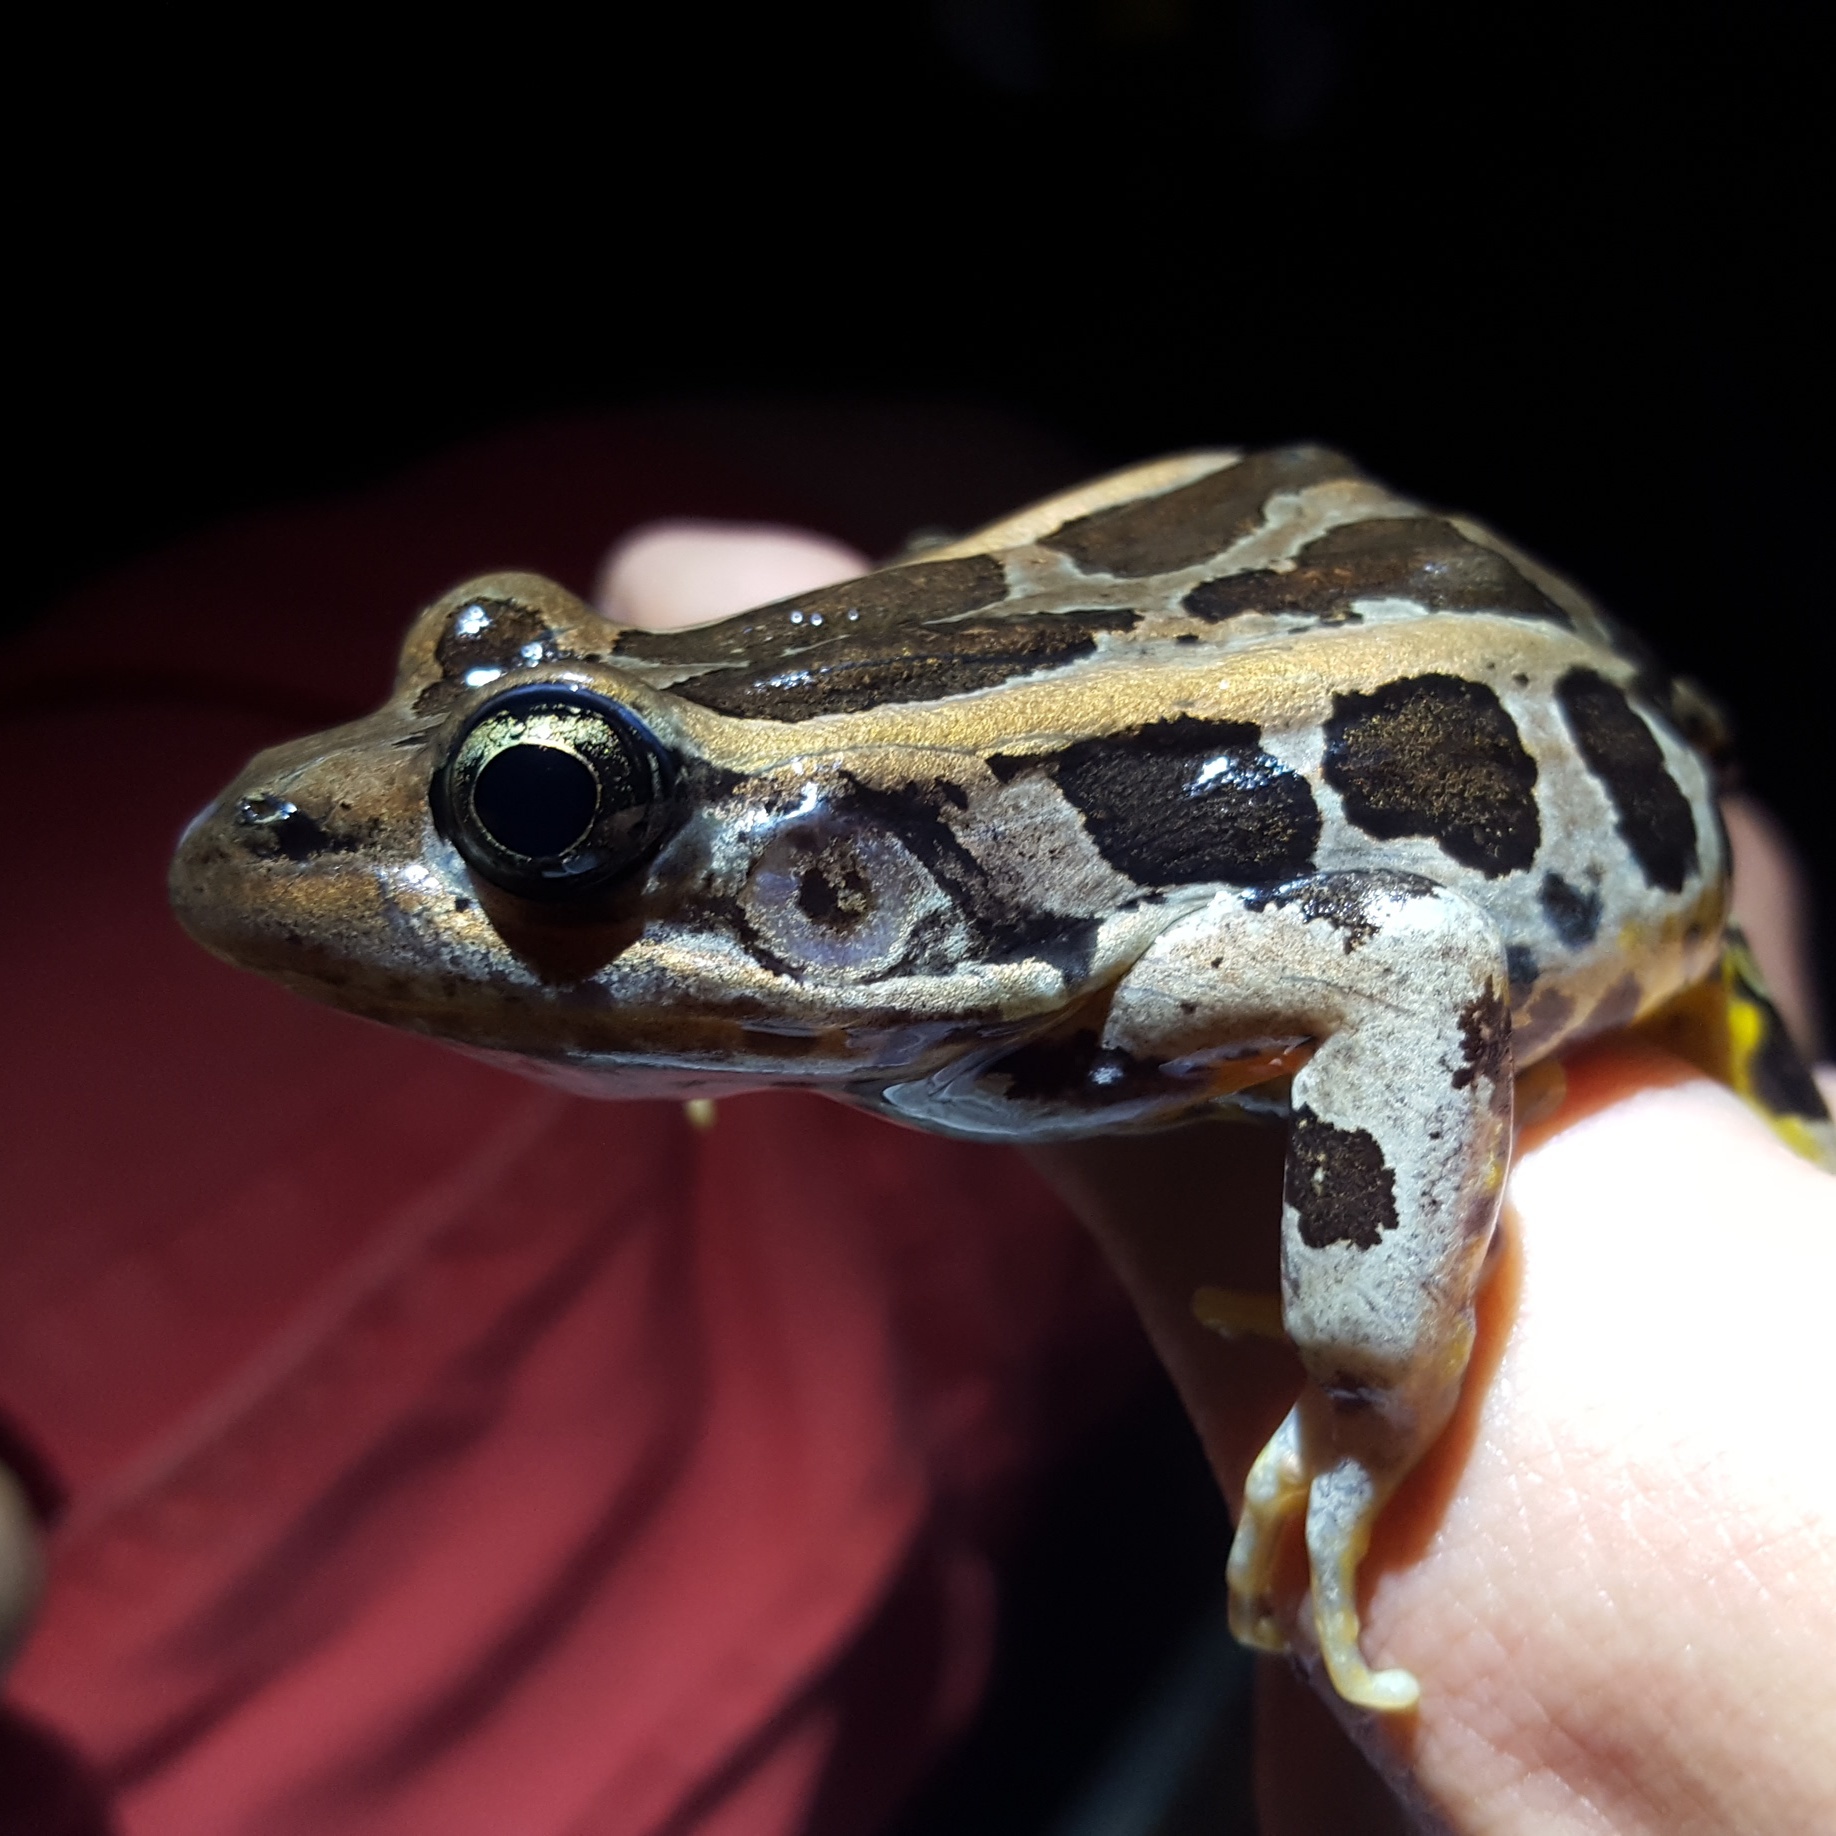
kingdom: Animalia
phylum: Chordata
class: Amphibia
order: Anura
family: Ranidae
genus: Lithobates
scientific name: Lithobates palustris
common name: Pickerel frog
